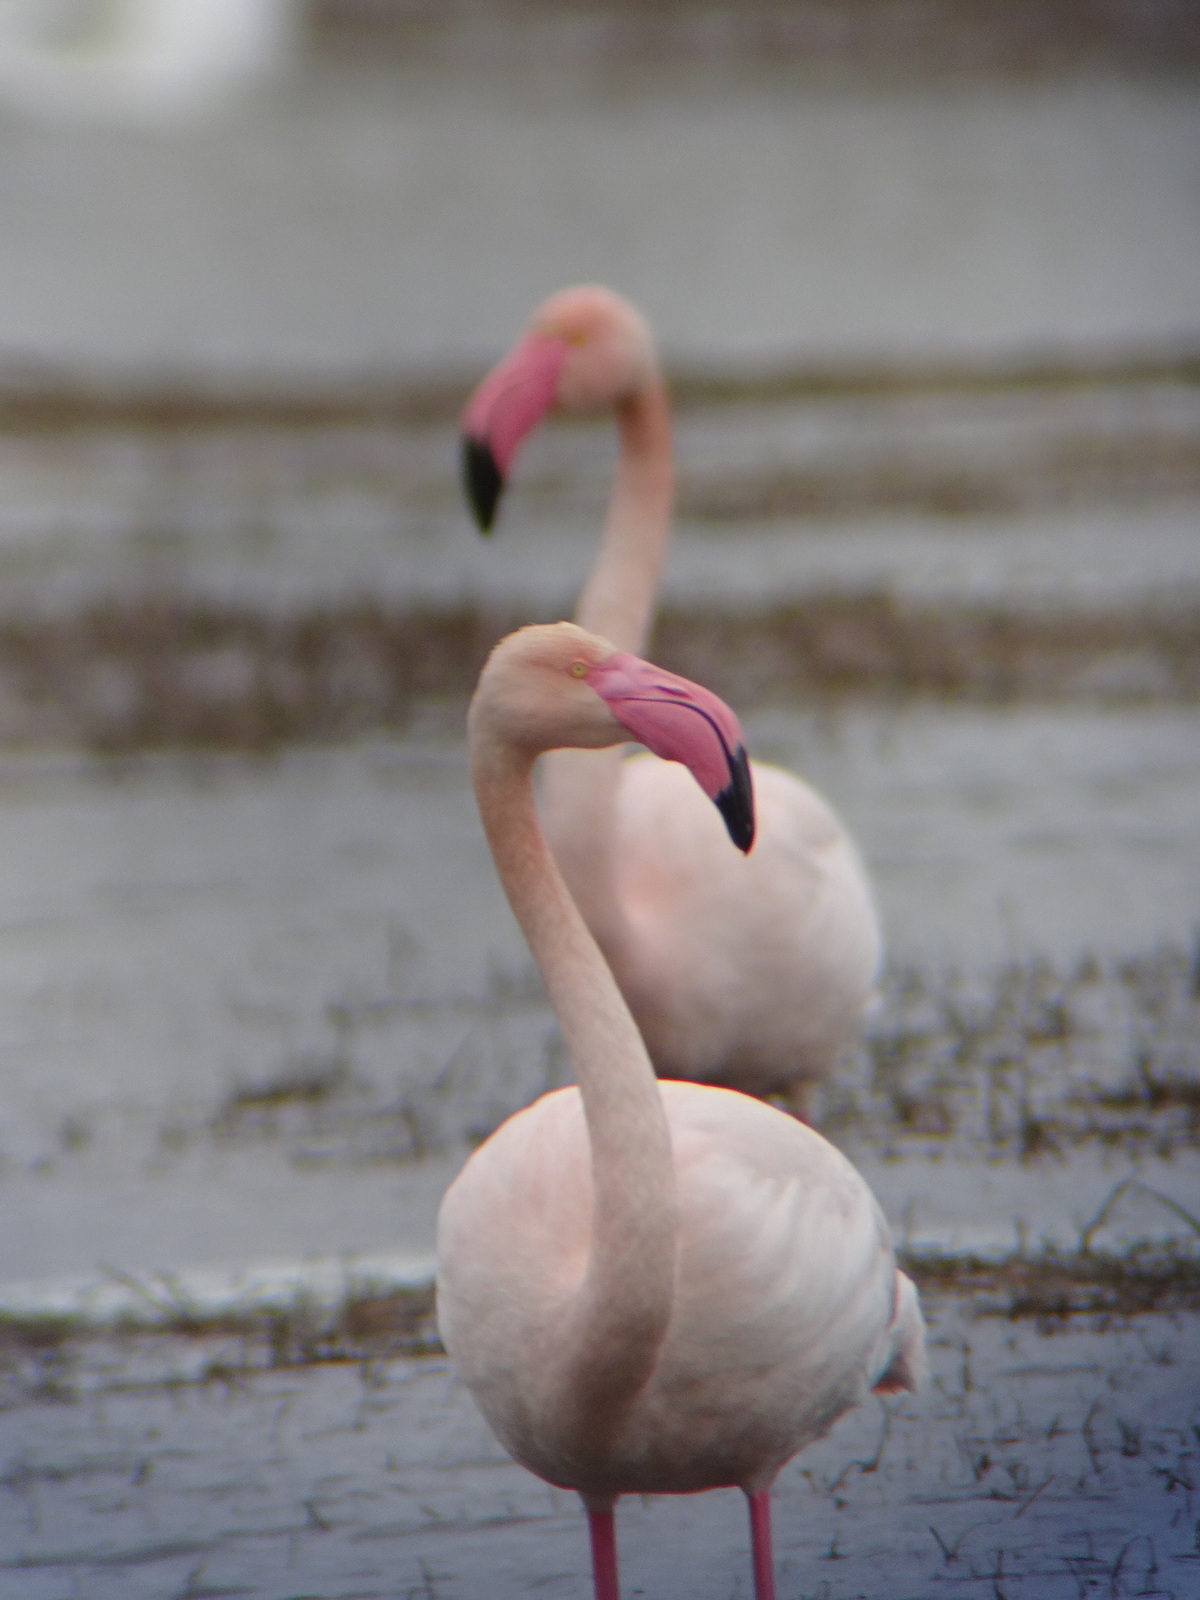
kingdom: Animalia
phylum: Chordata
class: Aves
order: Phoenicopteriformes
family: Phoenicopteridae
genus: Phoenicopterus
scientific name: Phoenicopterus roseus
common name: Greater flamingo
